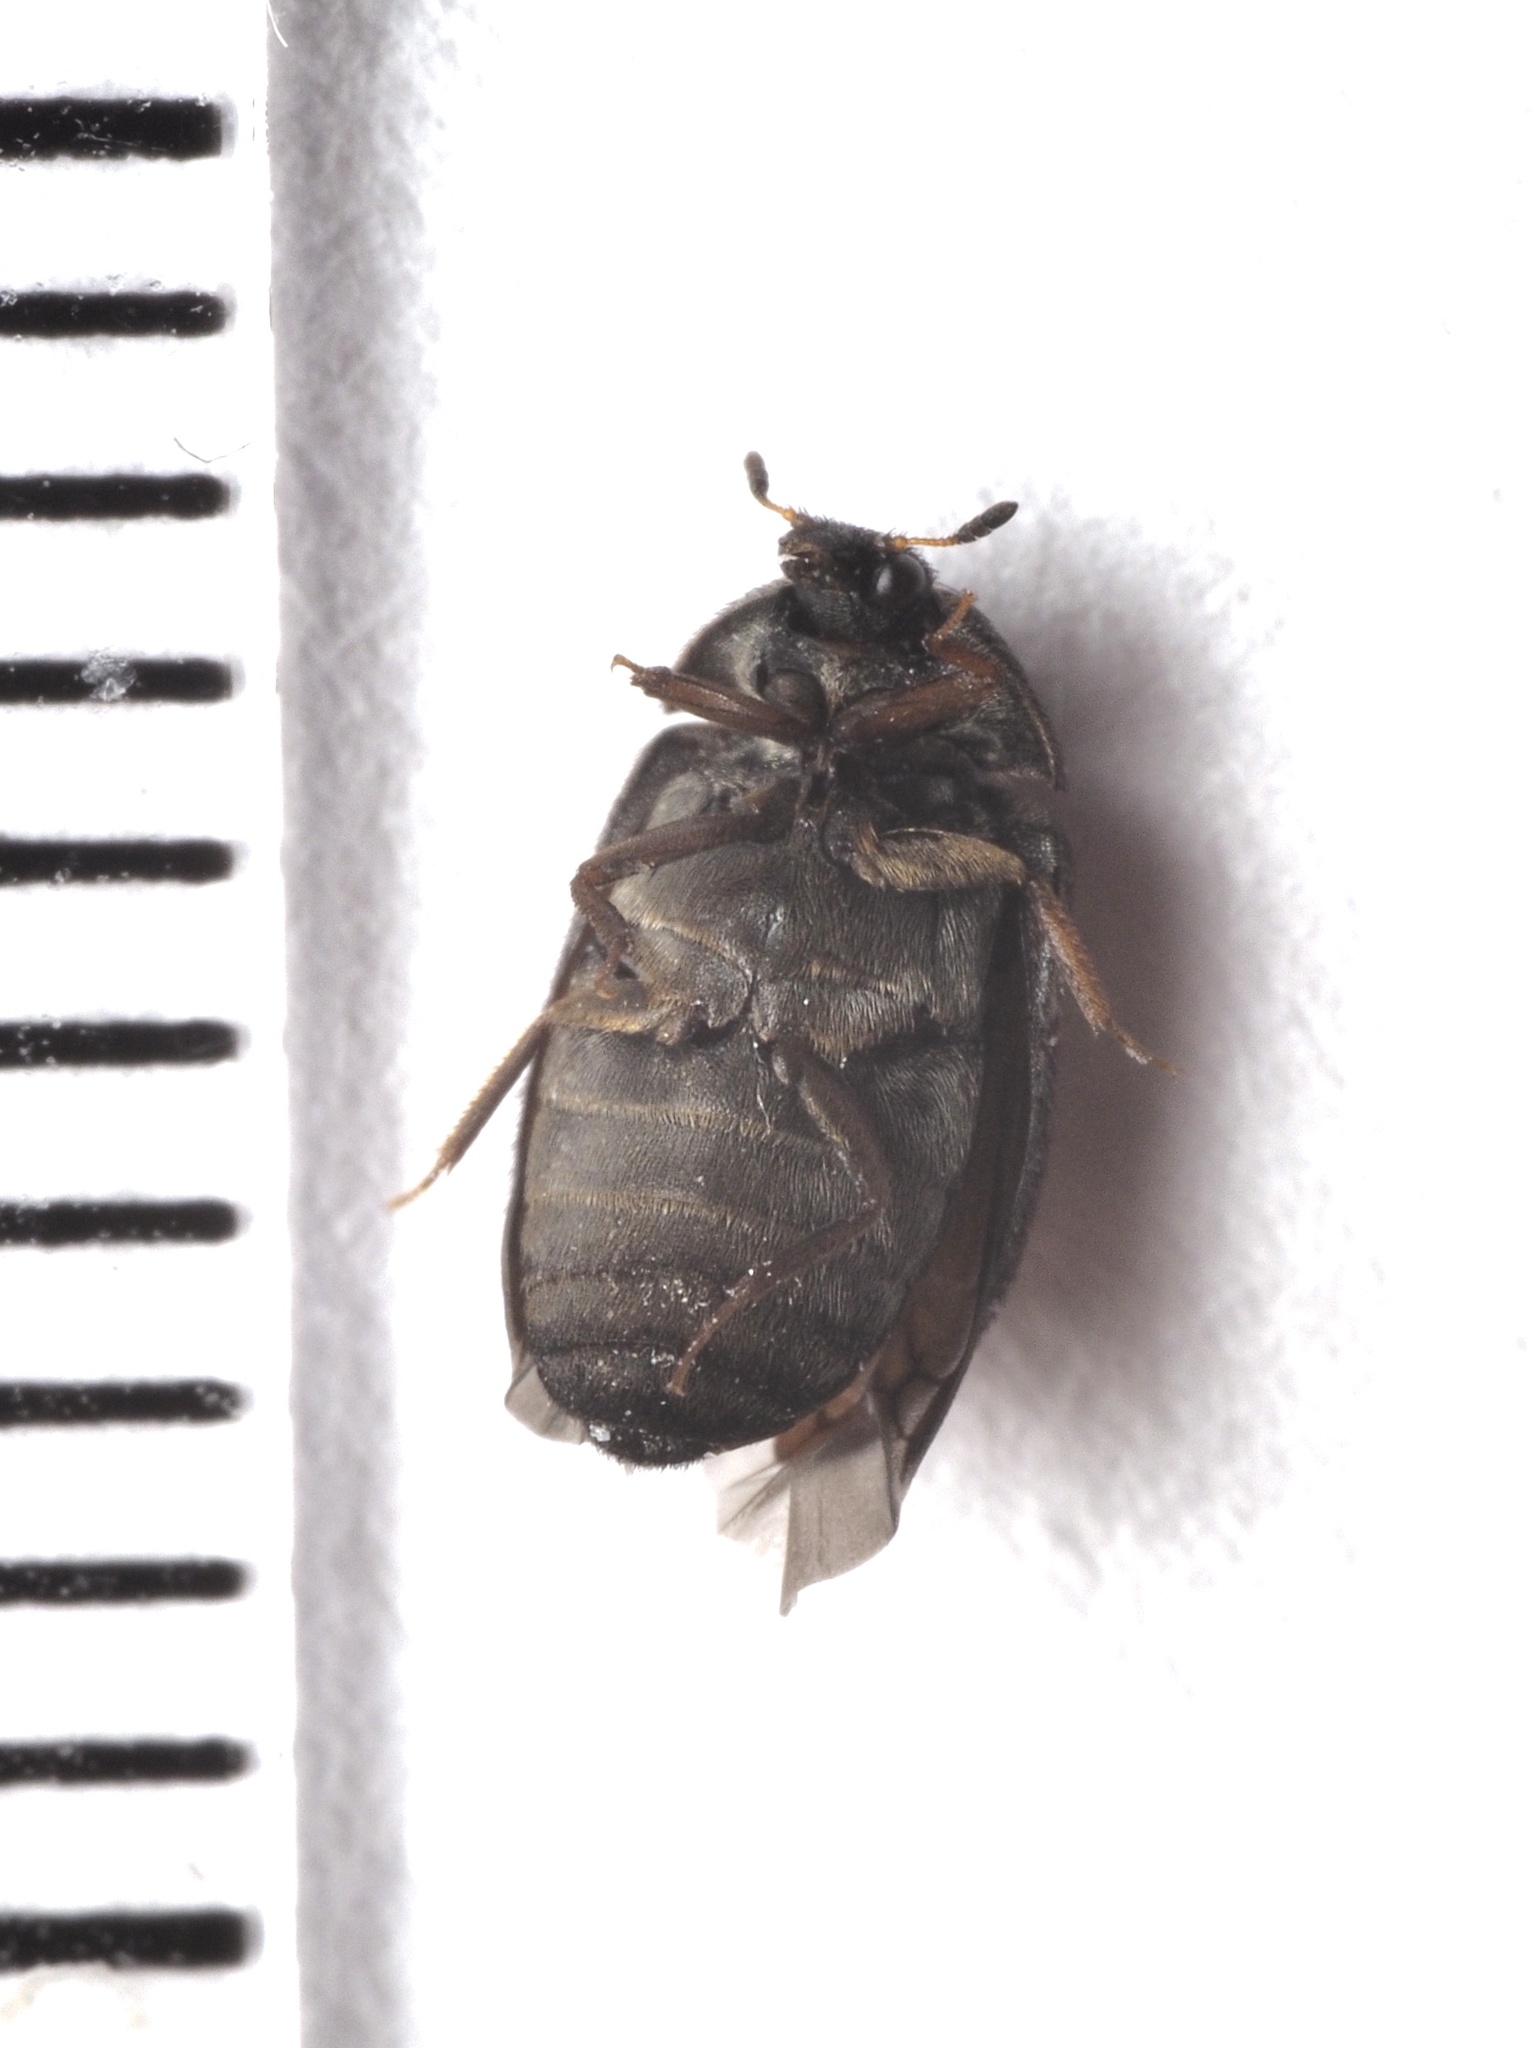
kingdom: Animalia
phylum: Arthropoda
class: Insecta
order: Coleoptera
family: Dermestidae
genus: Attagenus
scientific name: Attagenus pellio
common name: Two-spotted carpet beetle
